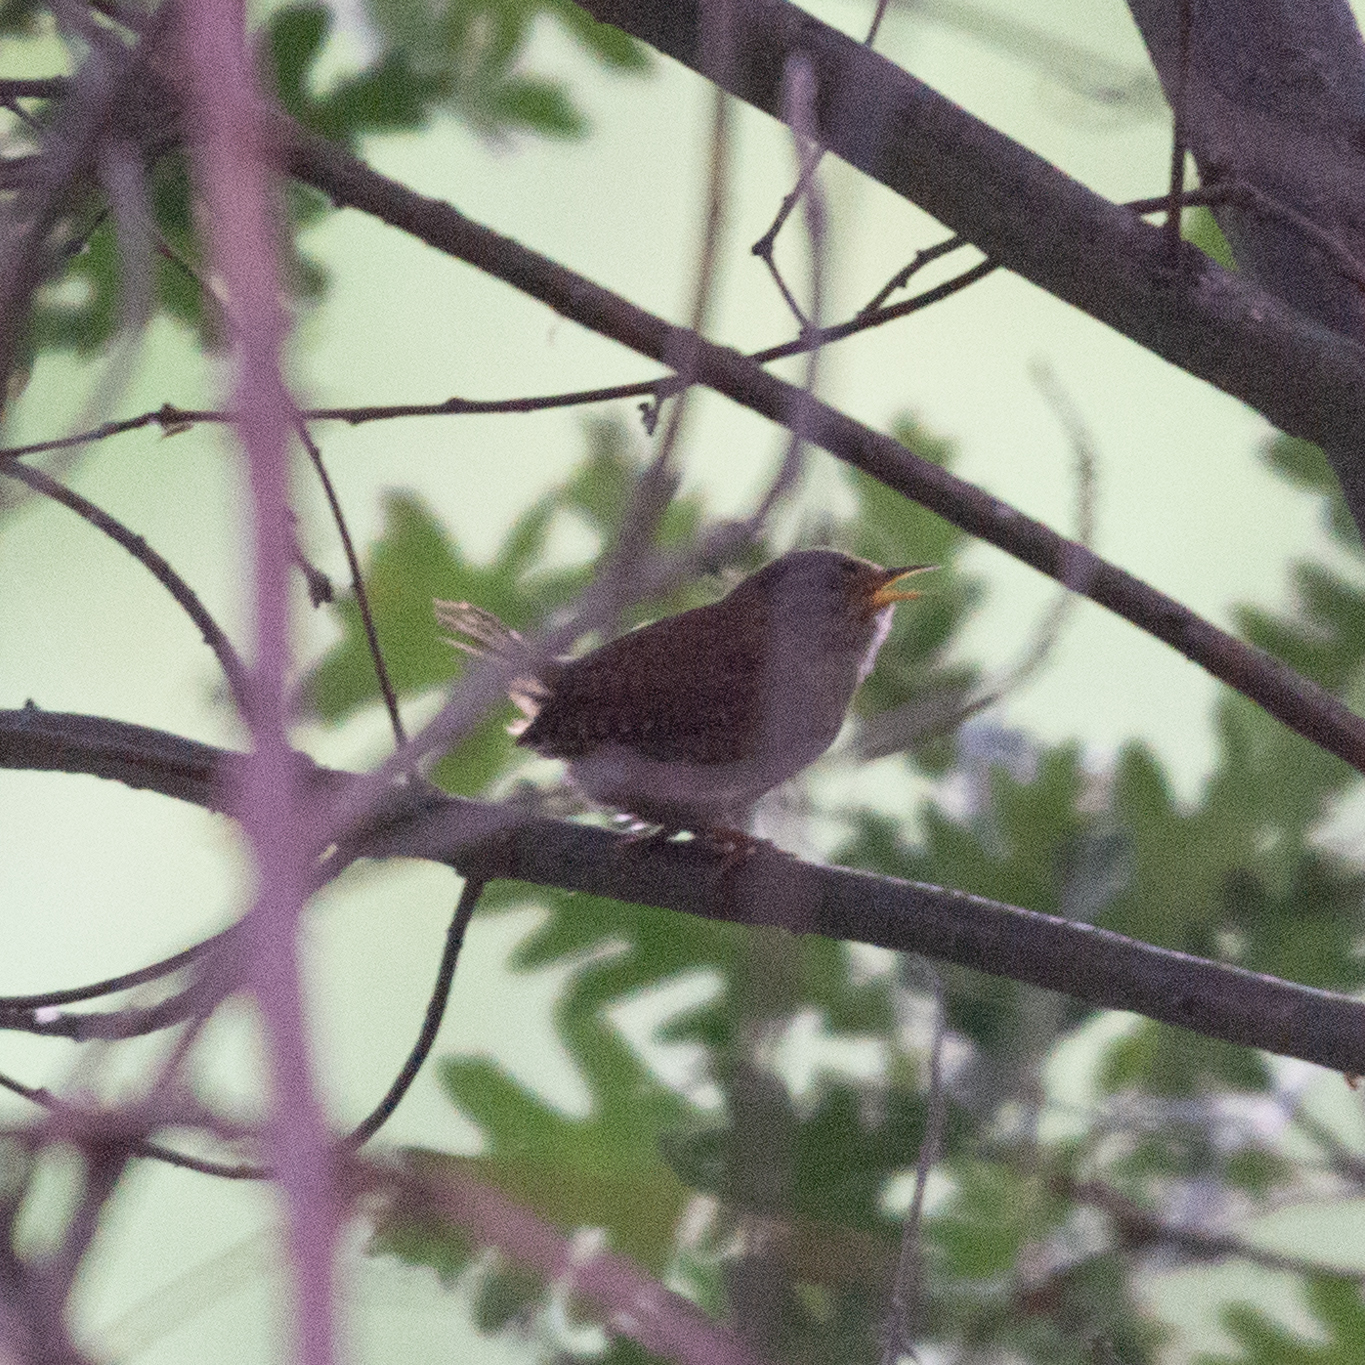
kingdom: Animalia
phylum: Chordata
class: Aves
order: Passeriformes
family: Troglodytidae
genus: Troglodytes
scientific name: Troglodytes troglodytes
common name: Eurasian wren
